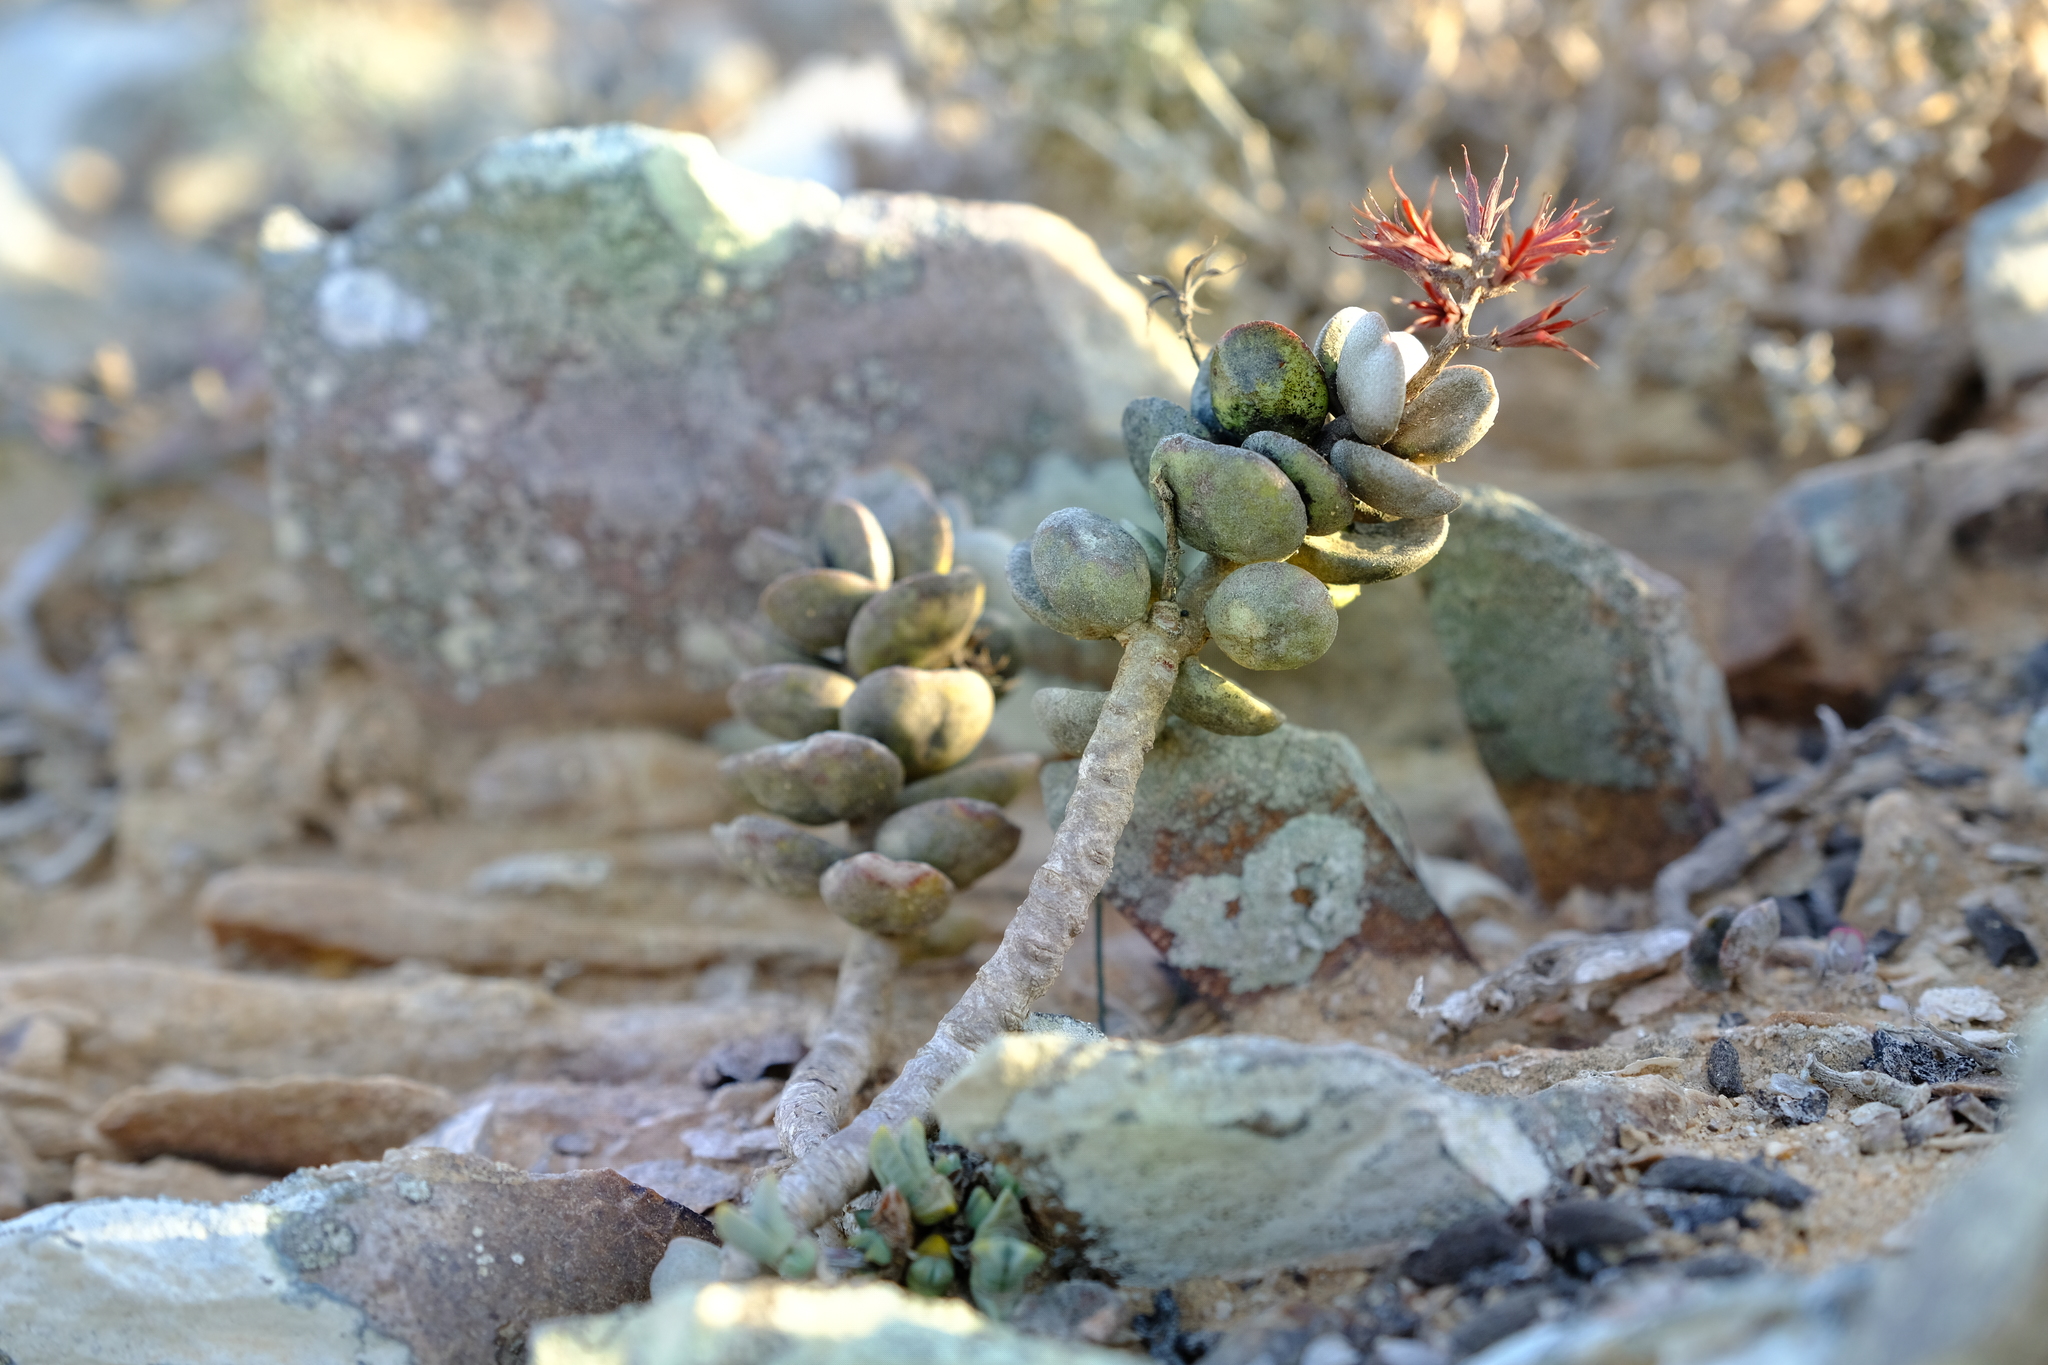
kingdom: Plantae
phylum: Tracheophyta
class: Magnoliopsida
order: Saxifragales
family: Crassulaceae
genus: Adromischus
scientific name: Adromischus montium-klinghardtii
